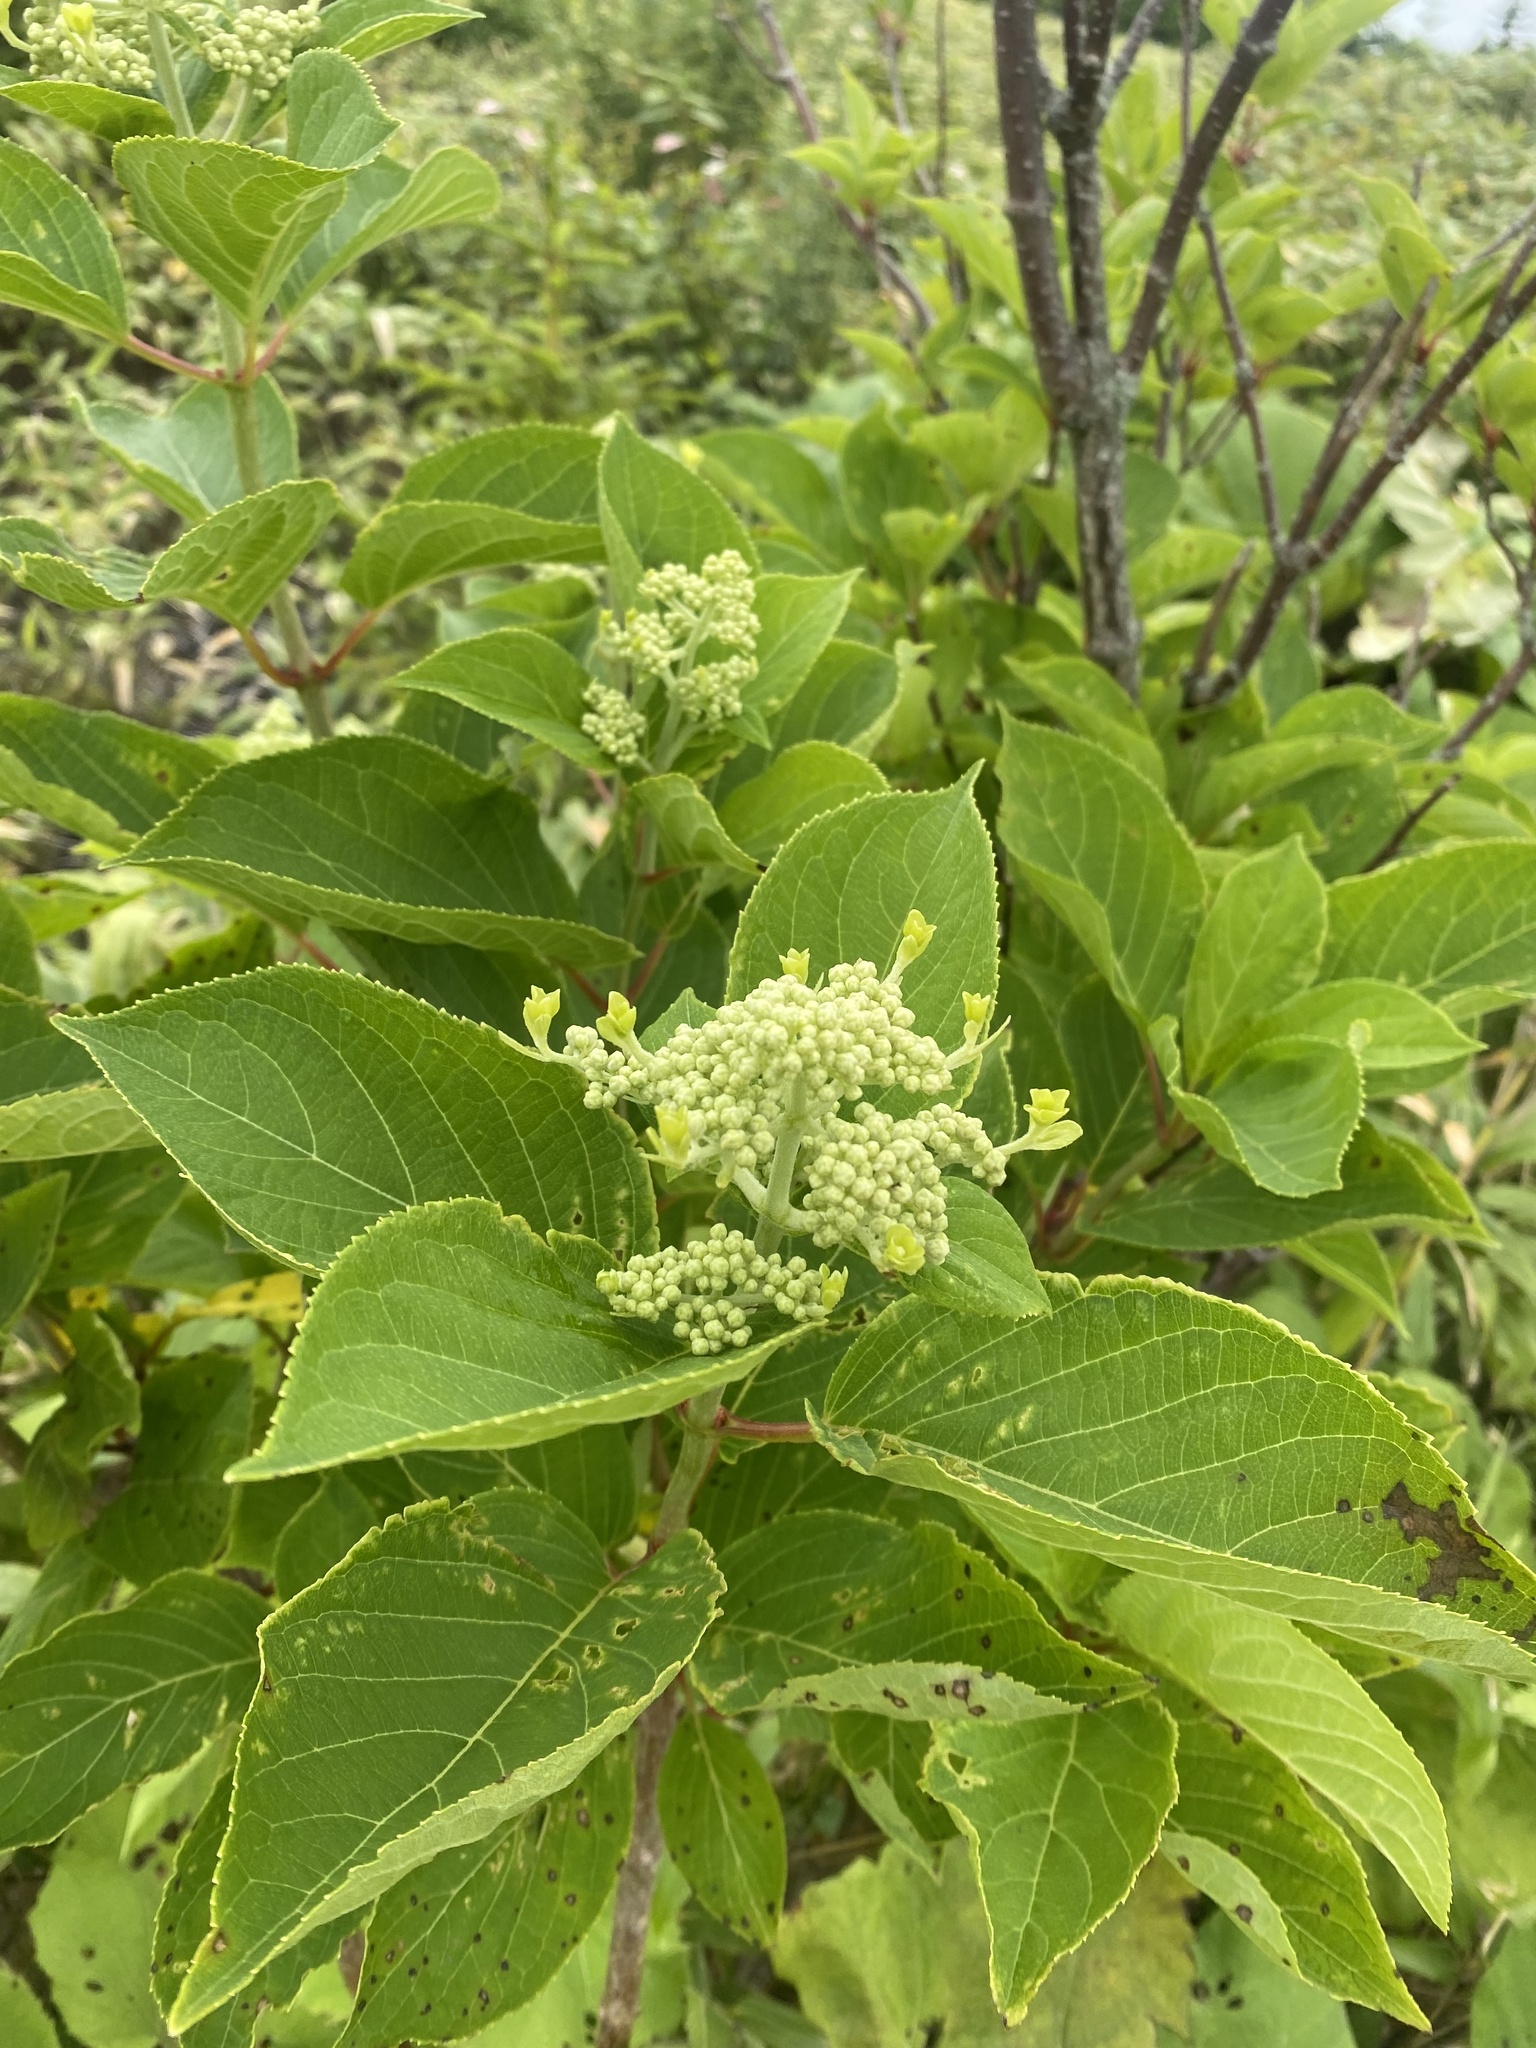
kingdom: Plantae
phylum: Tracheophyta
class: Magnoliopsida
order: Cornales
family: Hydrangeaceae
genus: Hydrangea
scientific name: Hydrangea paniculata
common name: Panicled hydrangea
